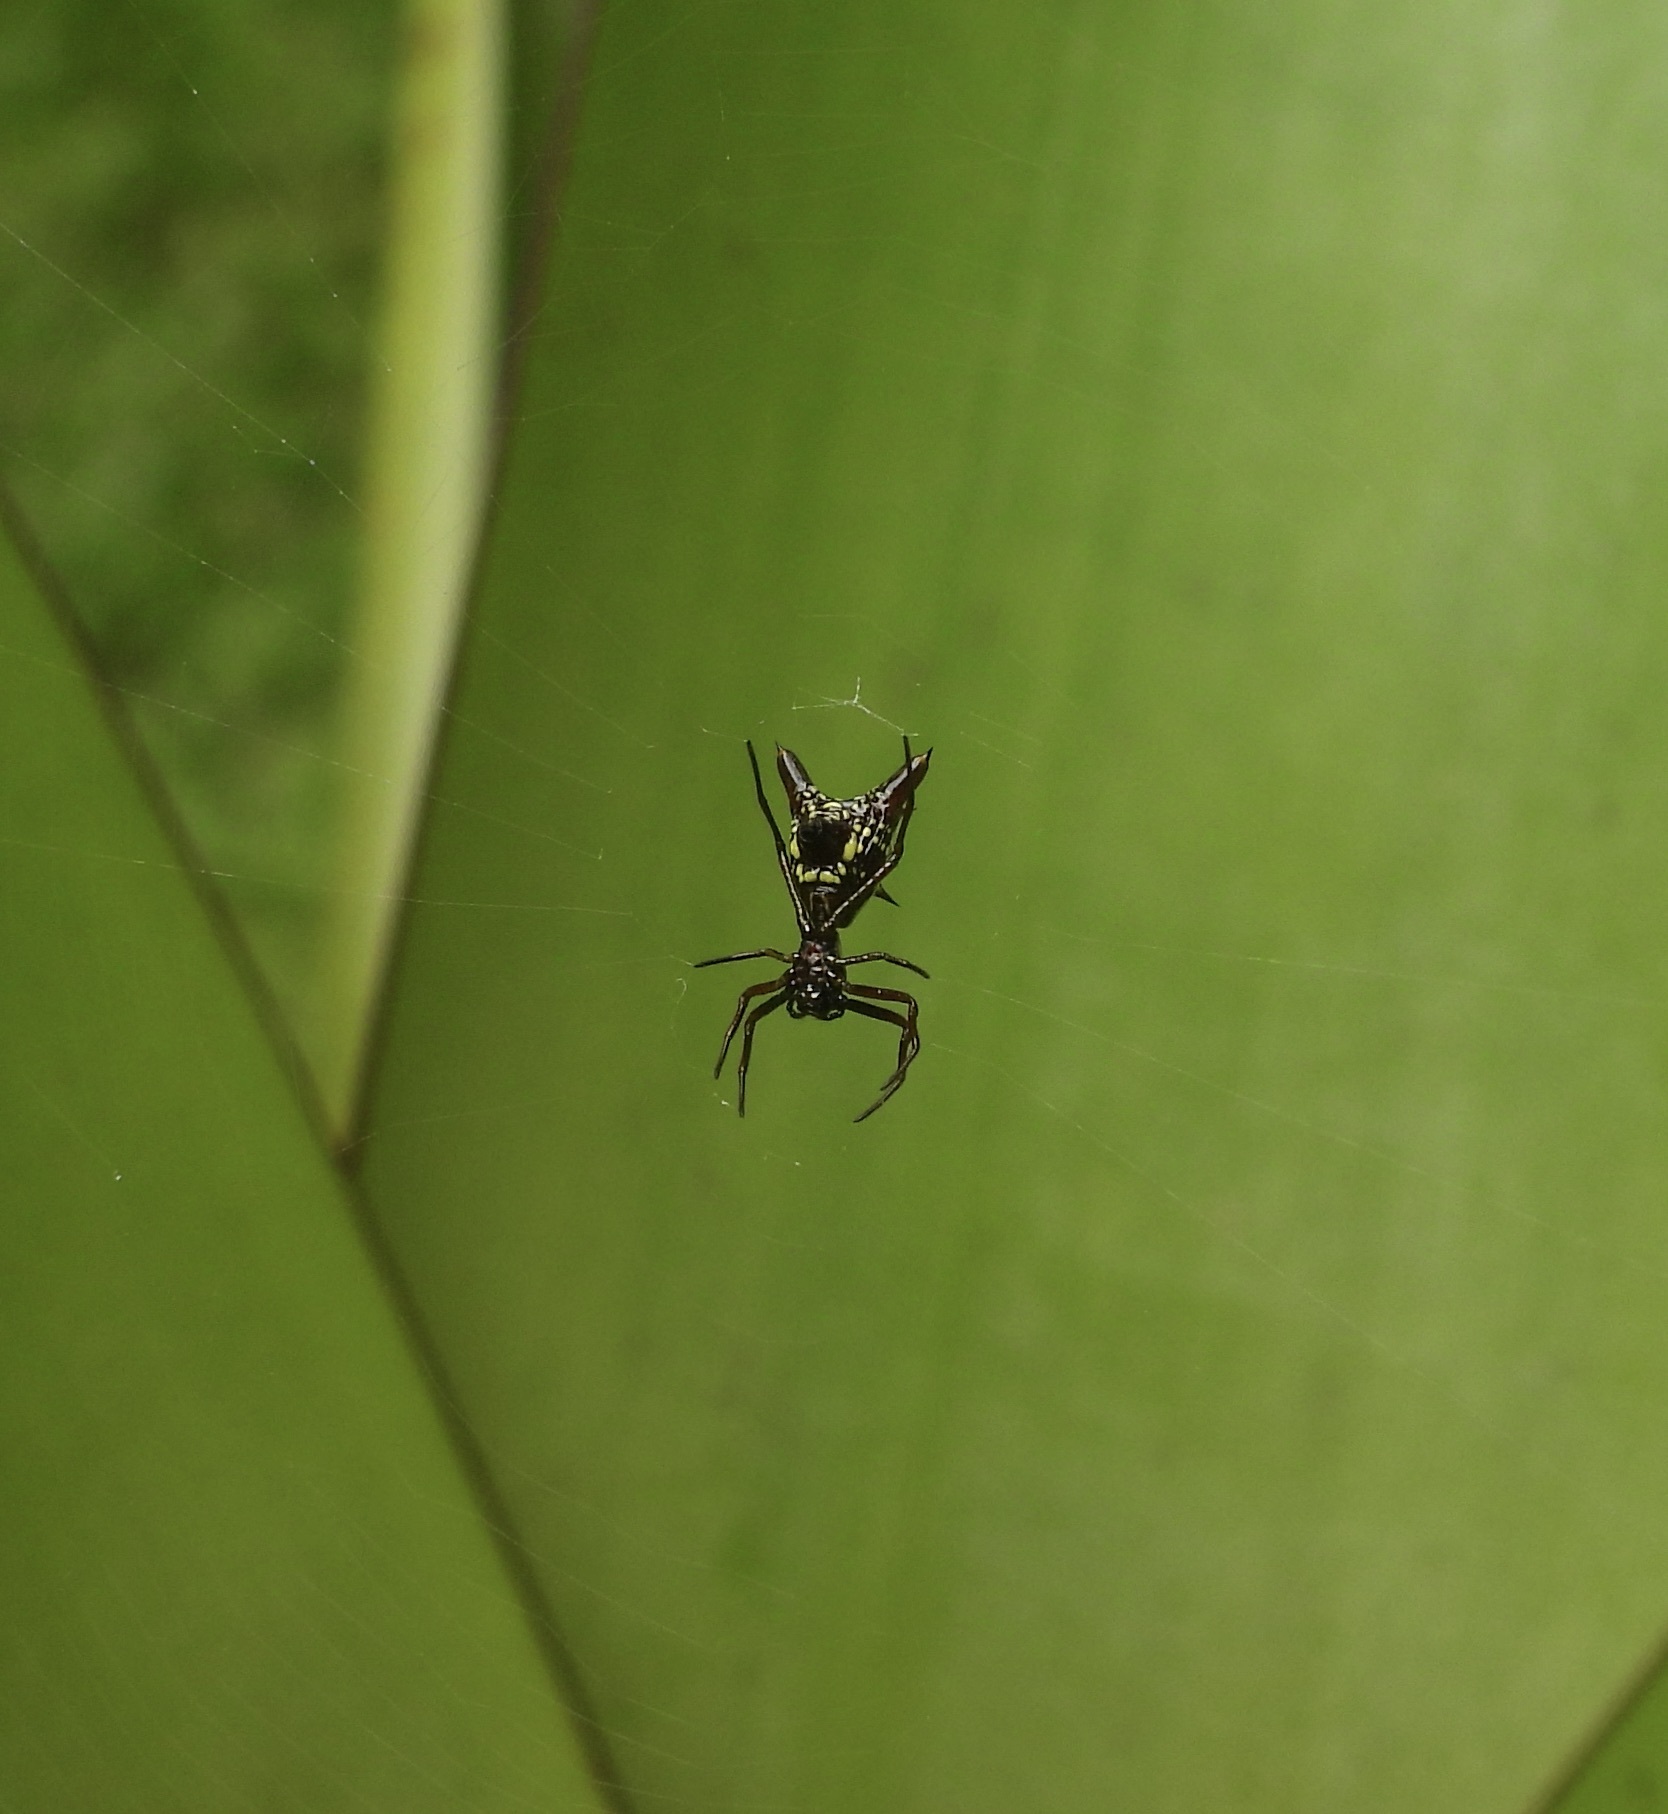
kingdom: Animalia
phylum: Arthropoda
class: Arachnida
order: Araneae
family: Araneidae
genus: Micrathena
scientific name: Micrathena sexspinosa
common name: Orb weavers
